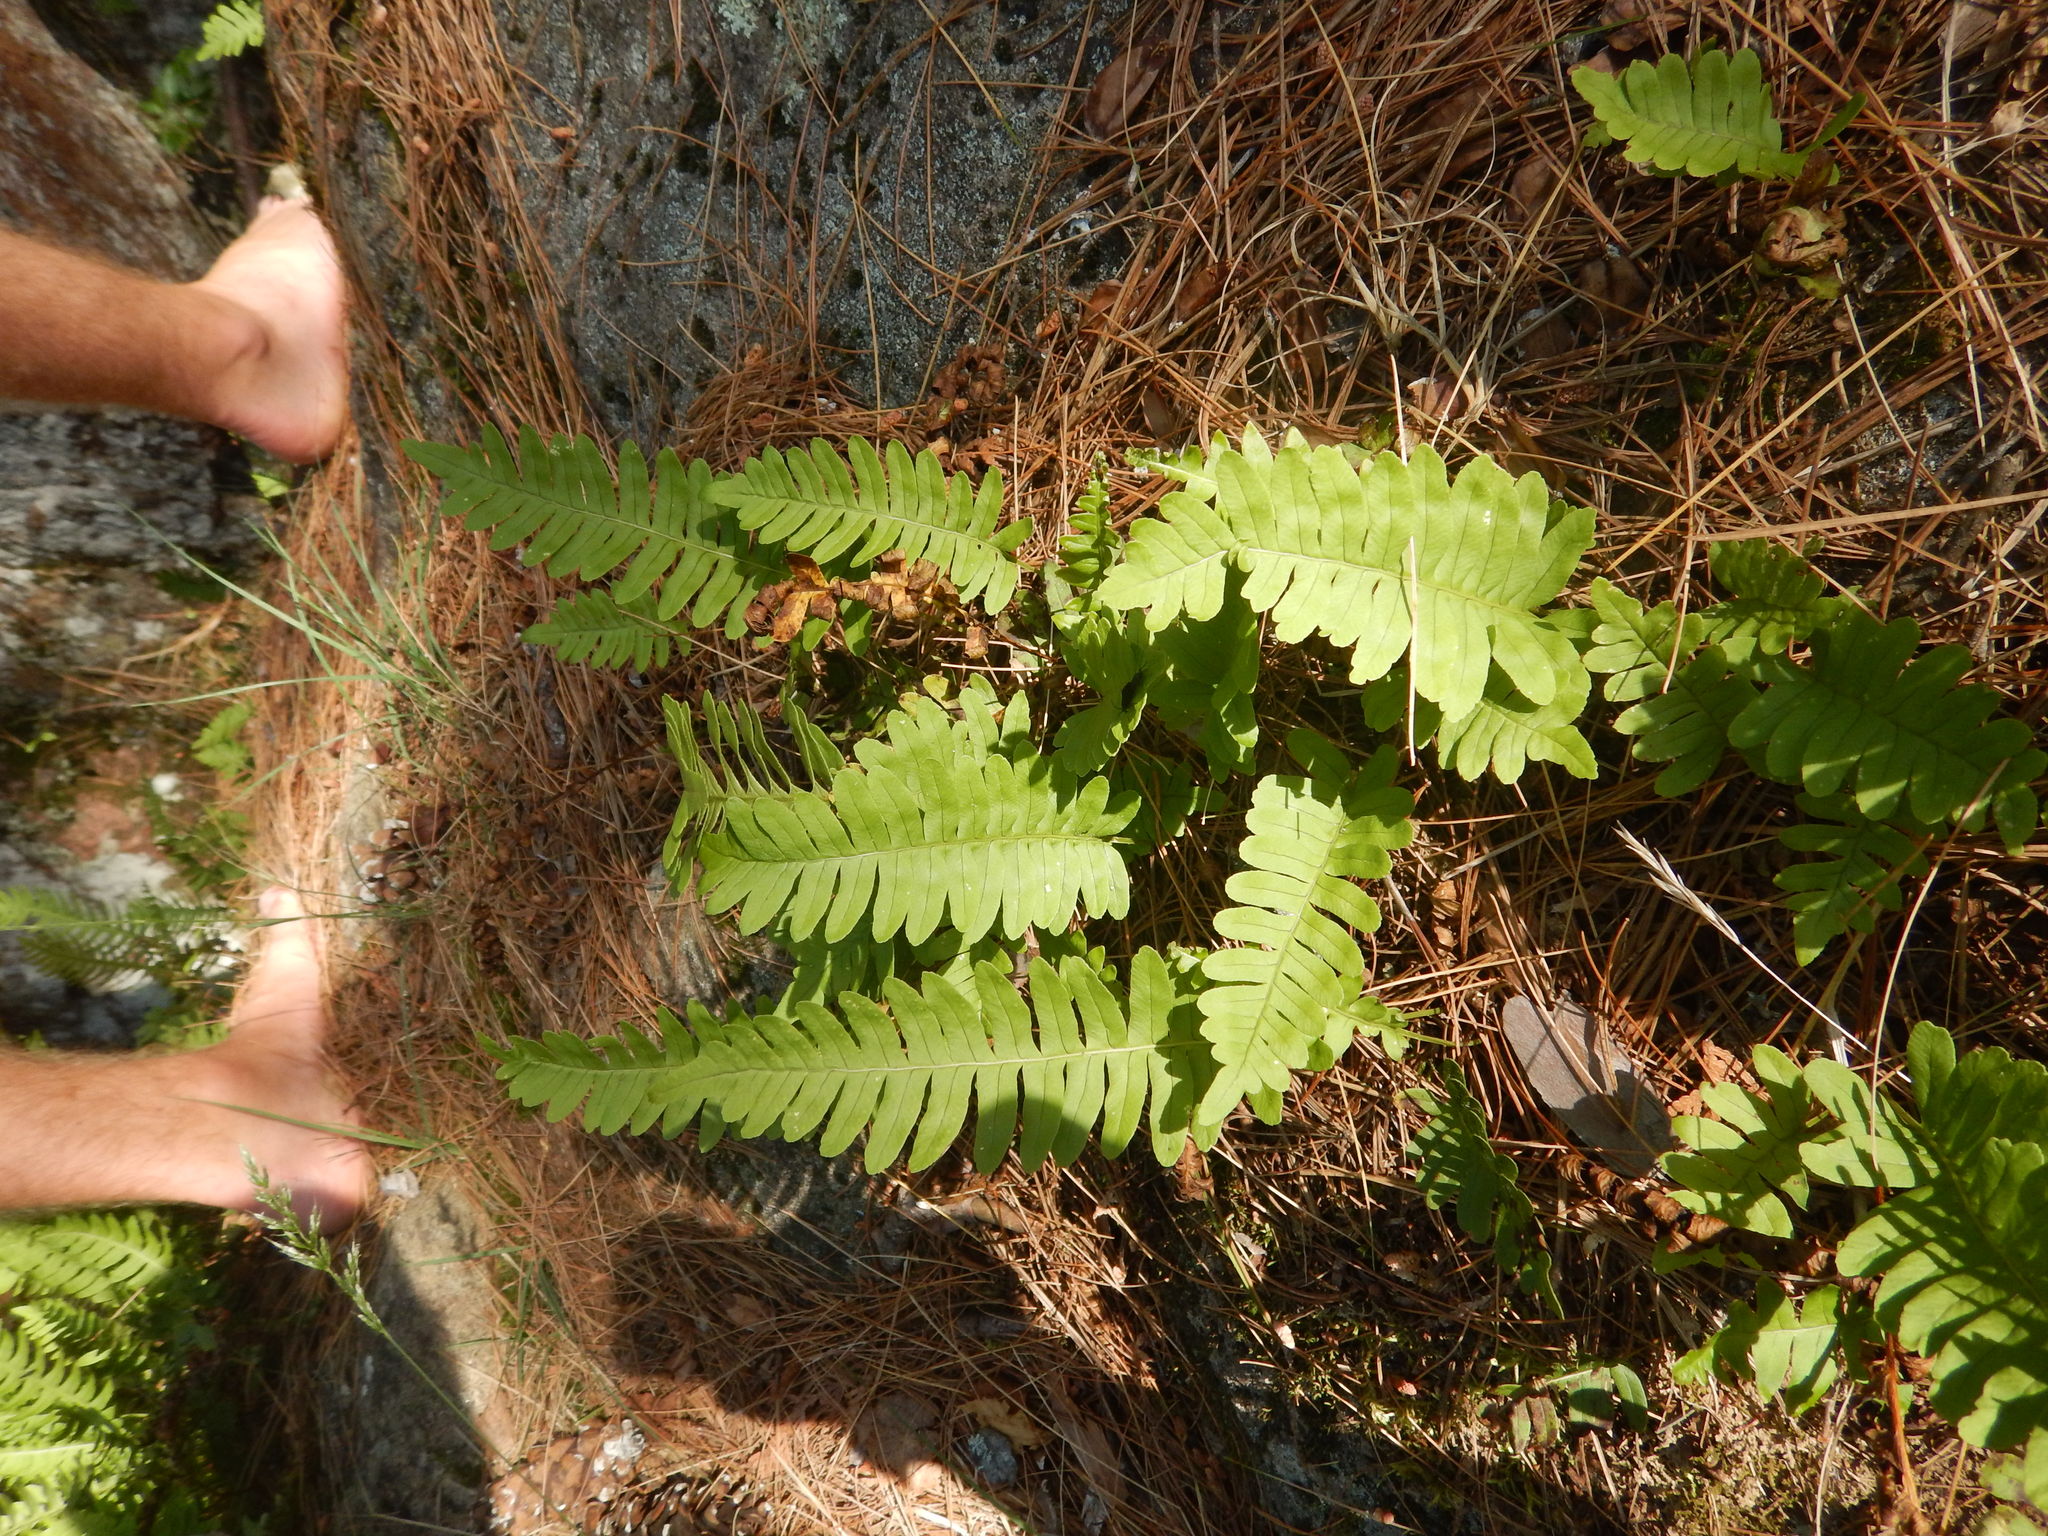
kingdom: Plantae
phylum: Tracheophyta
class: Polypodiopsida
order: Polypodiales
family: Polypodiaceae
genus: Polypodium
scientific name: Polypodium virginianum
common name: American wall fern
